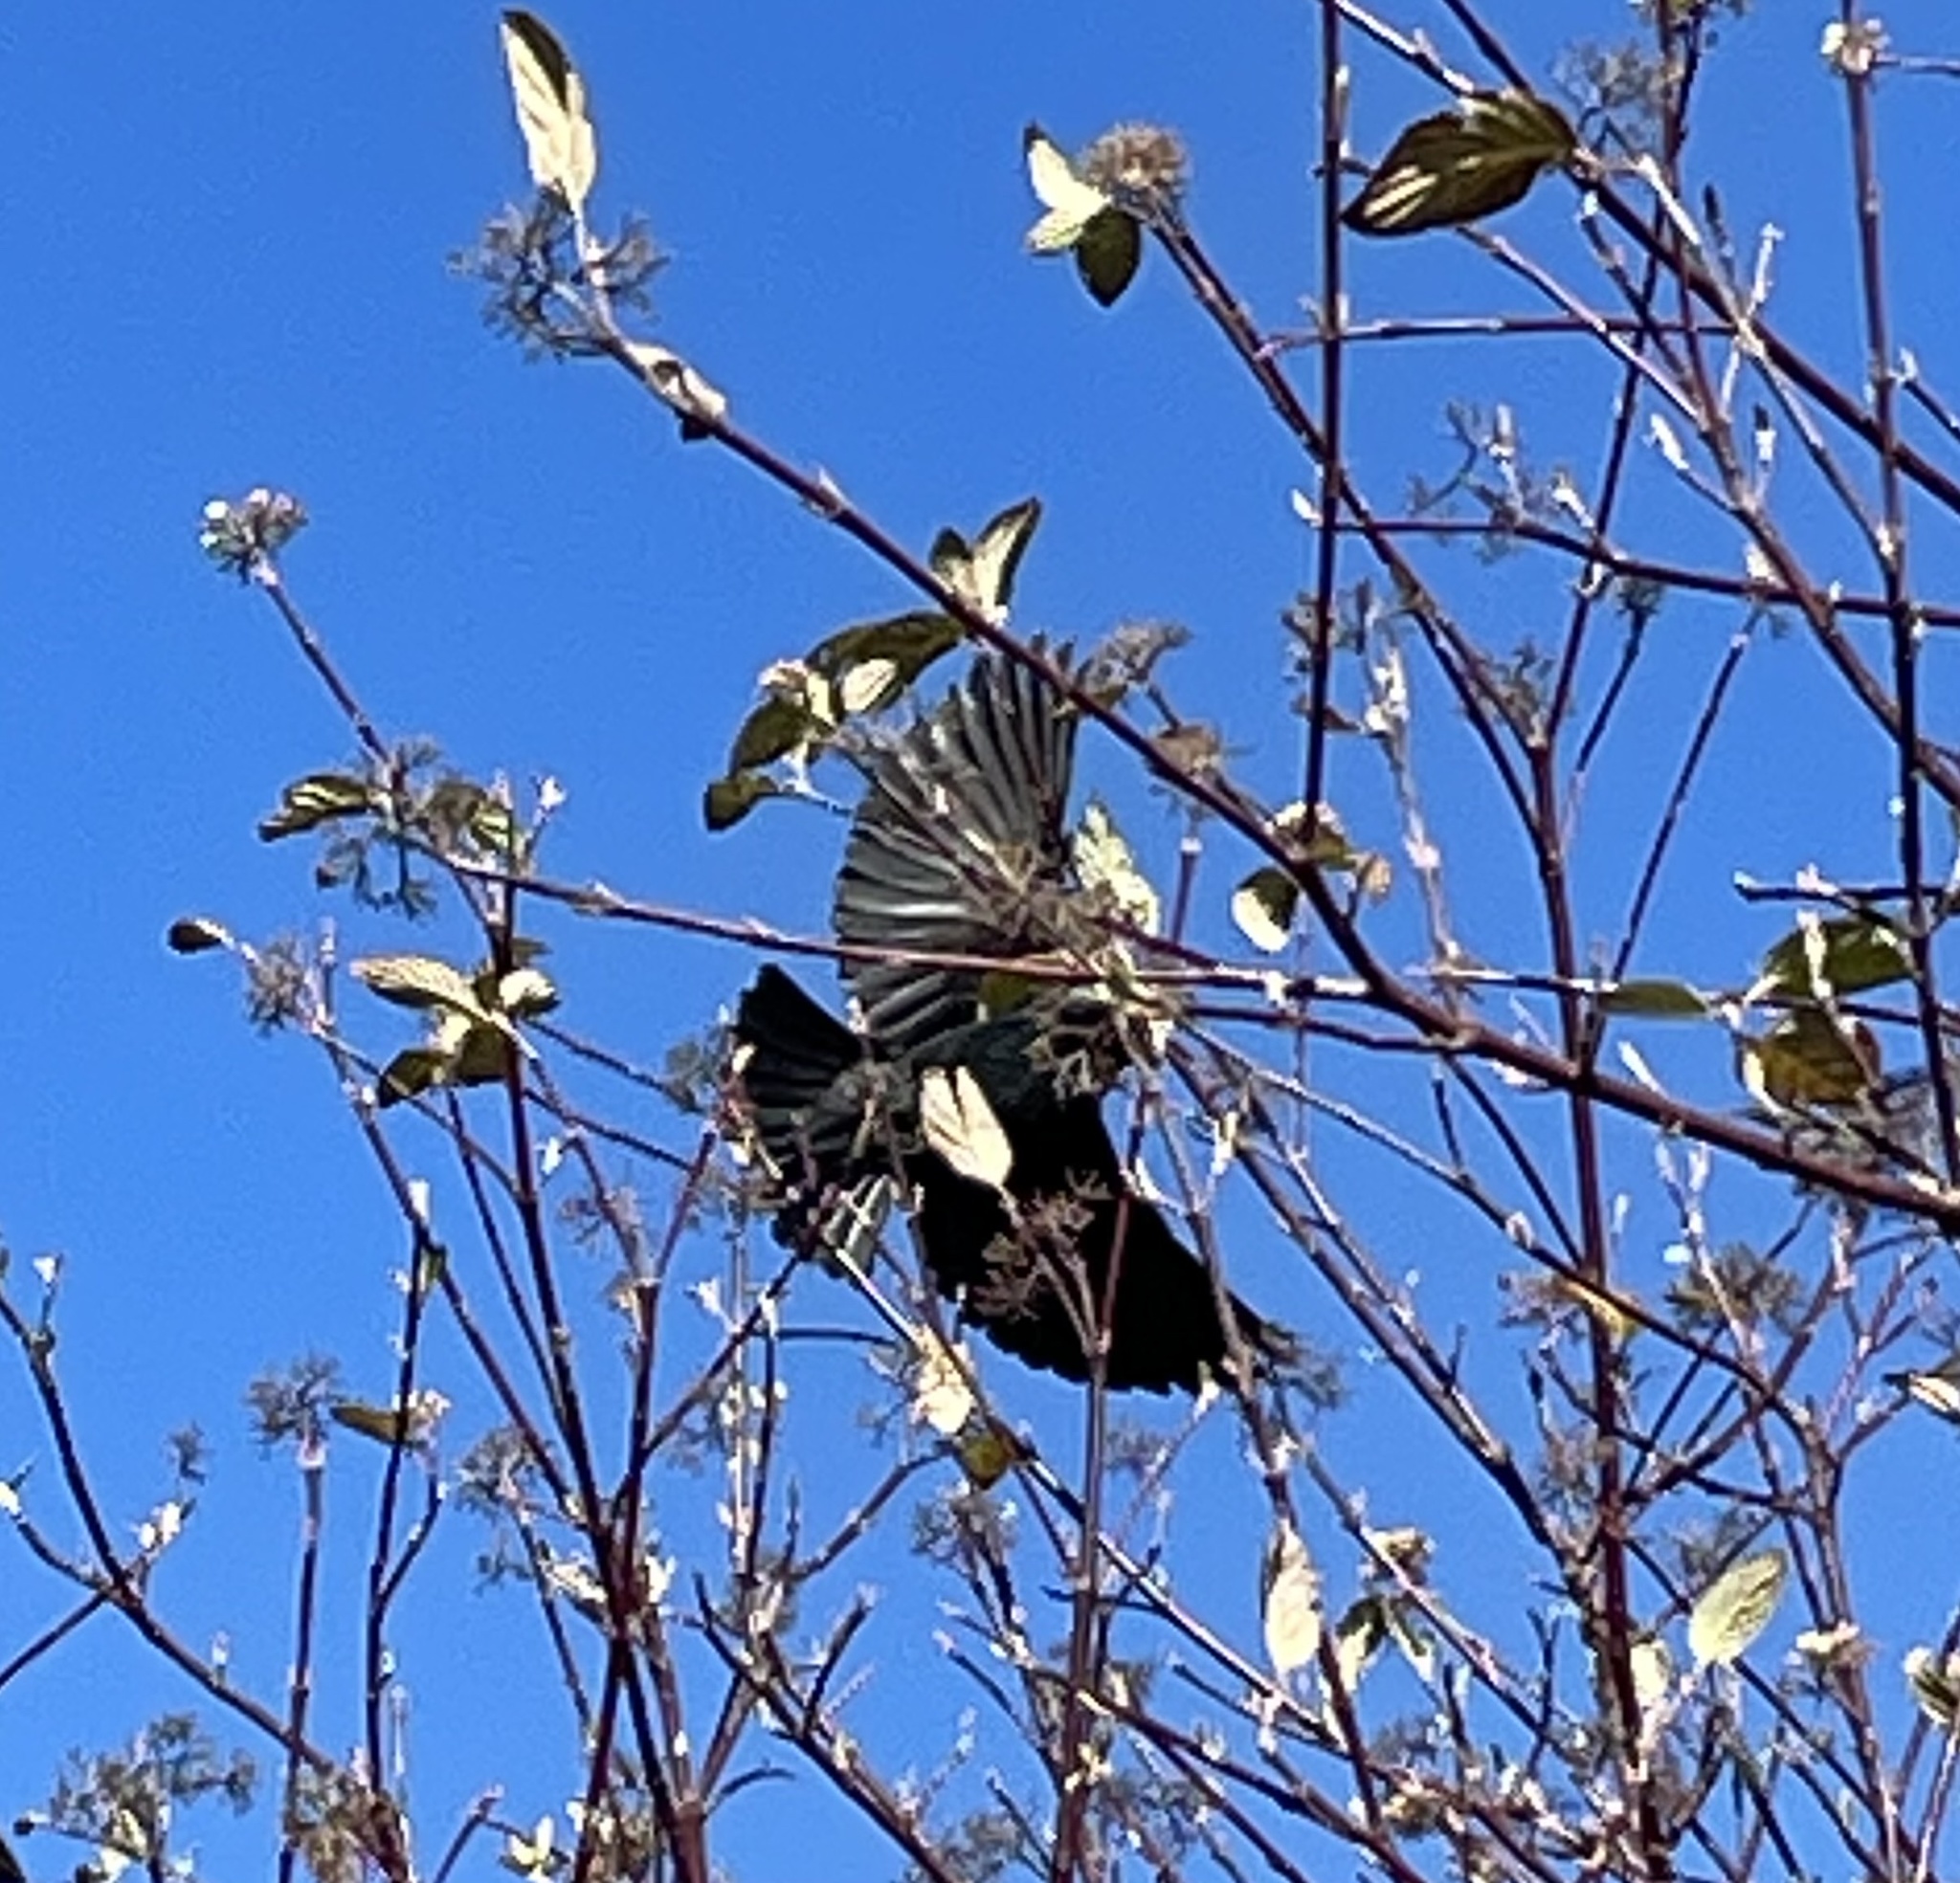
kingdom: Animalia
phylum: Chordata
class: Aves
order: Passeriformes
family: Icteridae
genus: Agelaius
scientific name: Agelaius phoeniceus
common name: Red-winged blackbird
